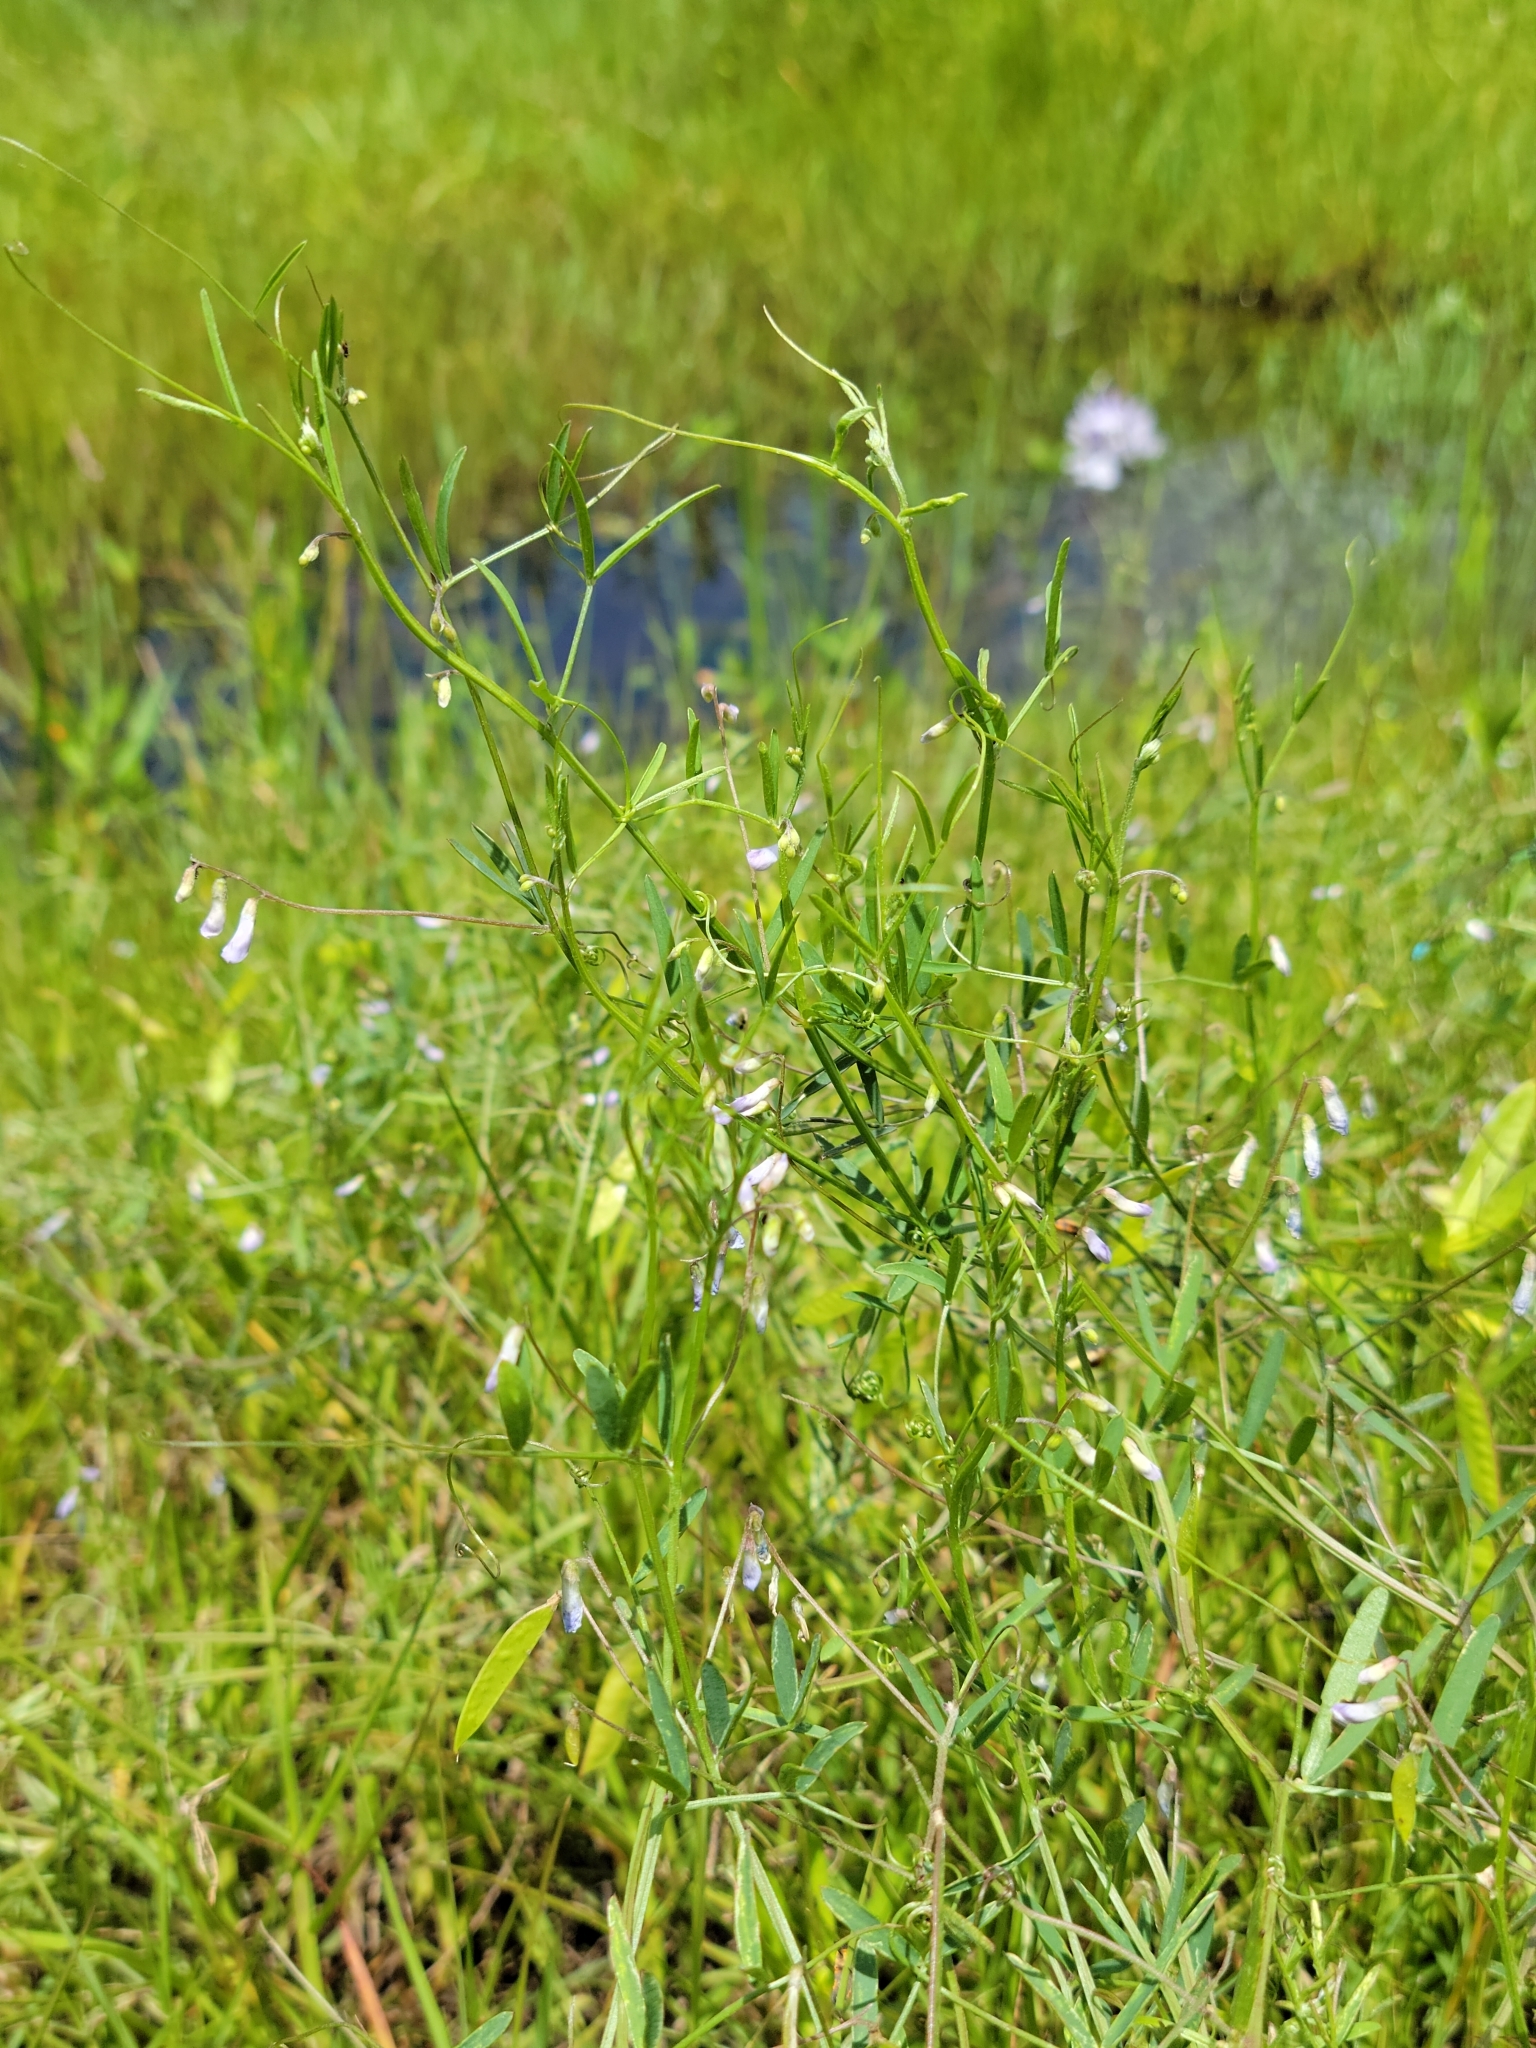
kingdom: Plantae
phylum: Tracheophyta
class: Magnoliopsida
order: Fabales
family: Fabaceae
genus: Vicia
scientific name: Vicia acutifolia
